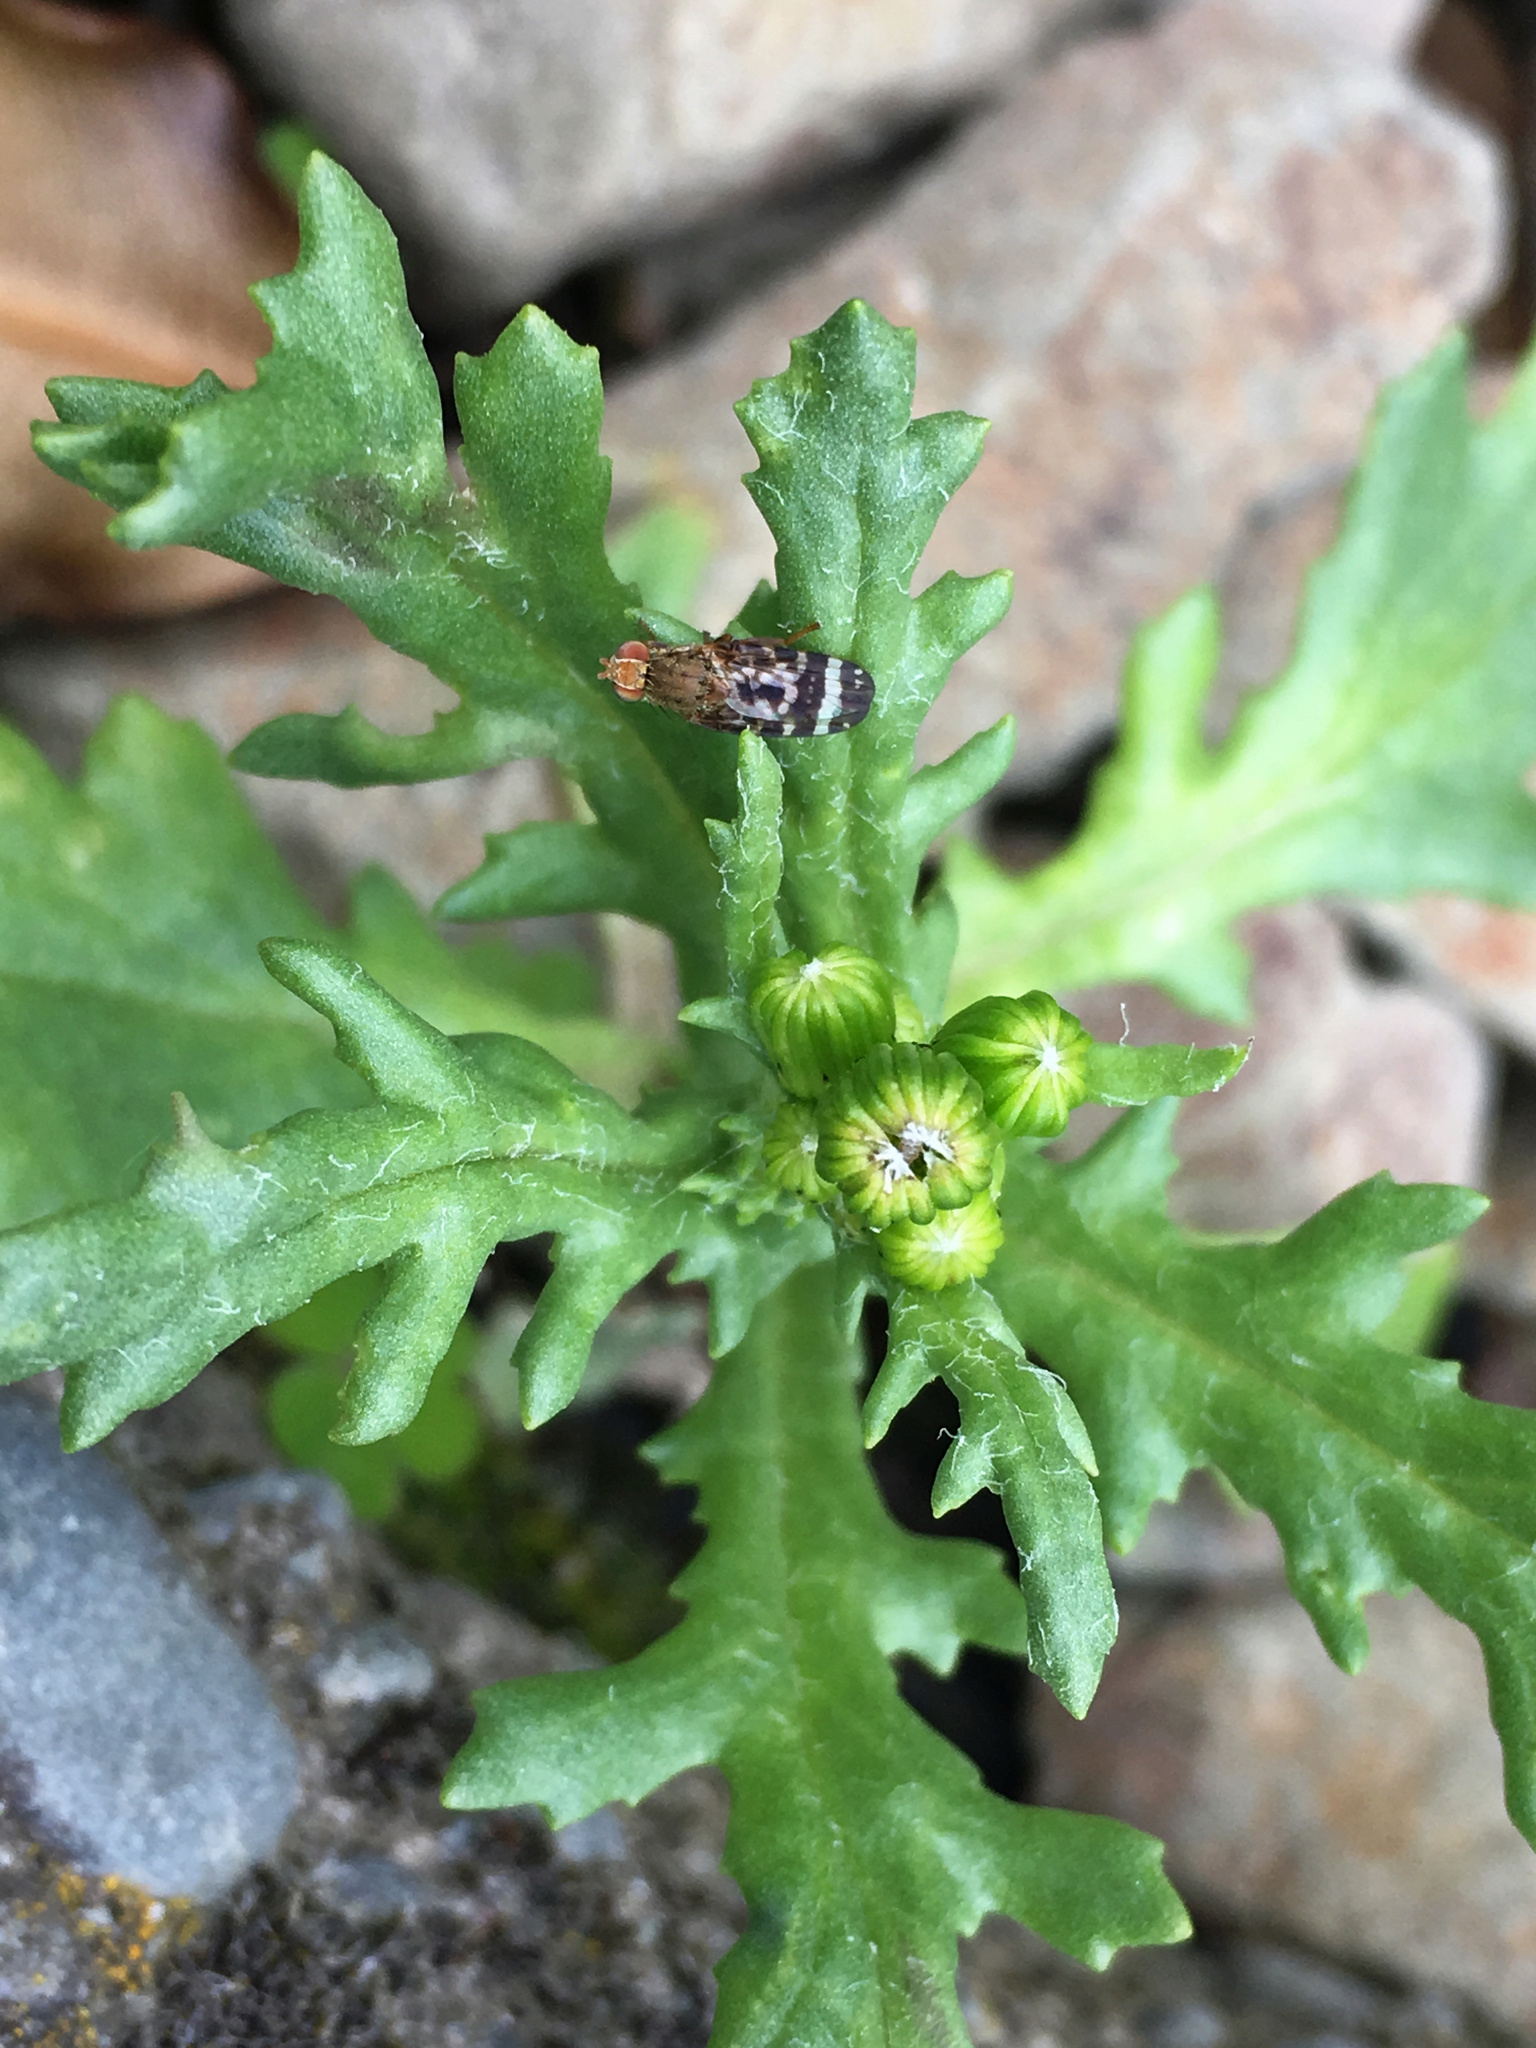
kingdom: Animalia
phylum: Arthropoda
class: Insecta
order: Diptera
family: Tephritidae
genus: Sphenella
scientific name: Sphenella
